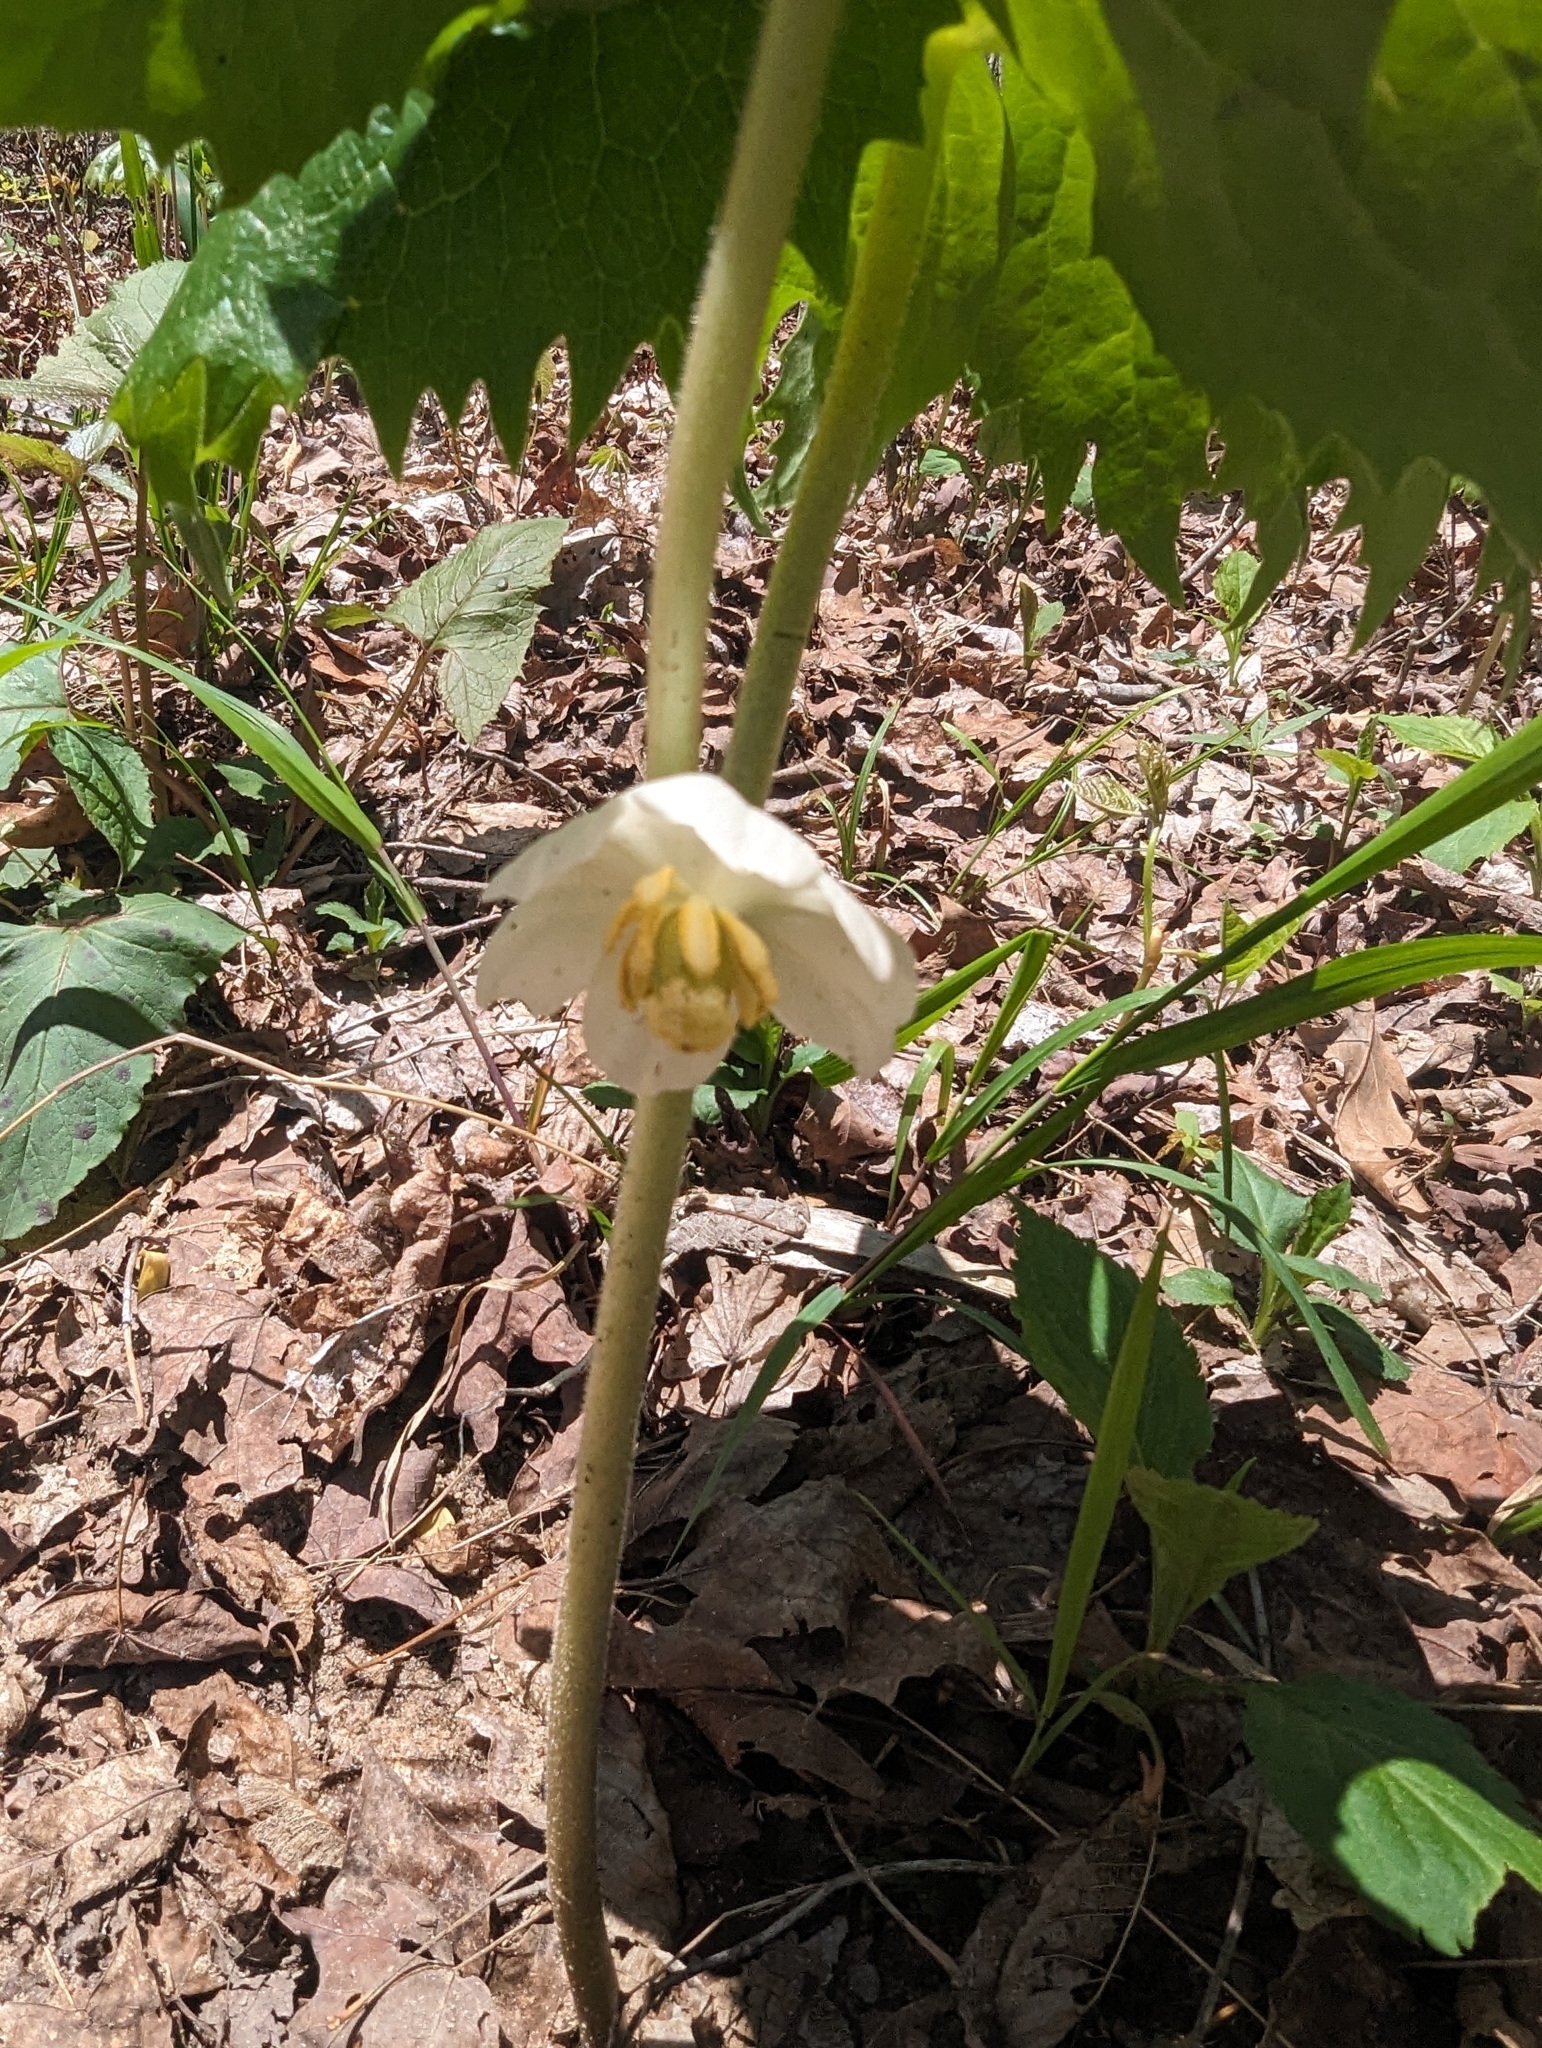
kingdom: Plantae
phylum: Tracheophyta
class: Magnoliopsida
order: Ranunculales
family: Berberidaceae
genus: Podophyllum
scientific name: Podophyllum peltatum
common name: Wild mandrake
